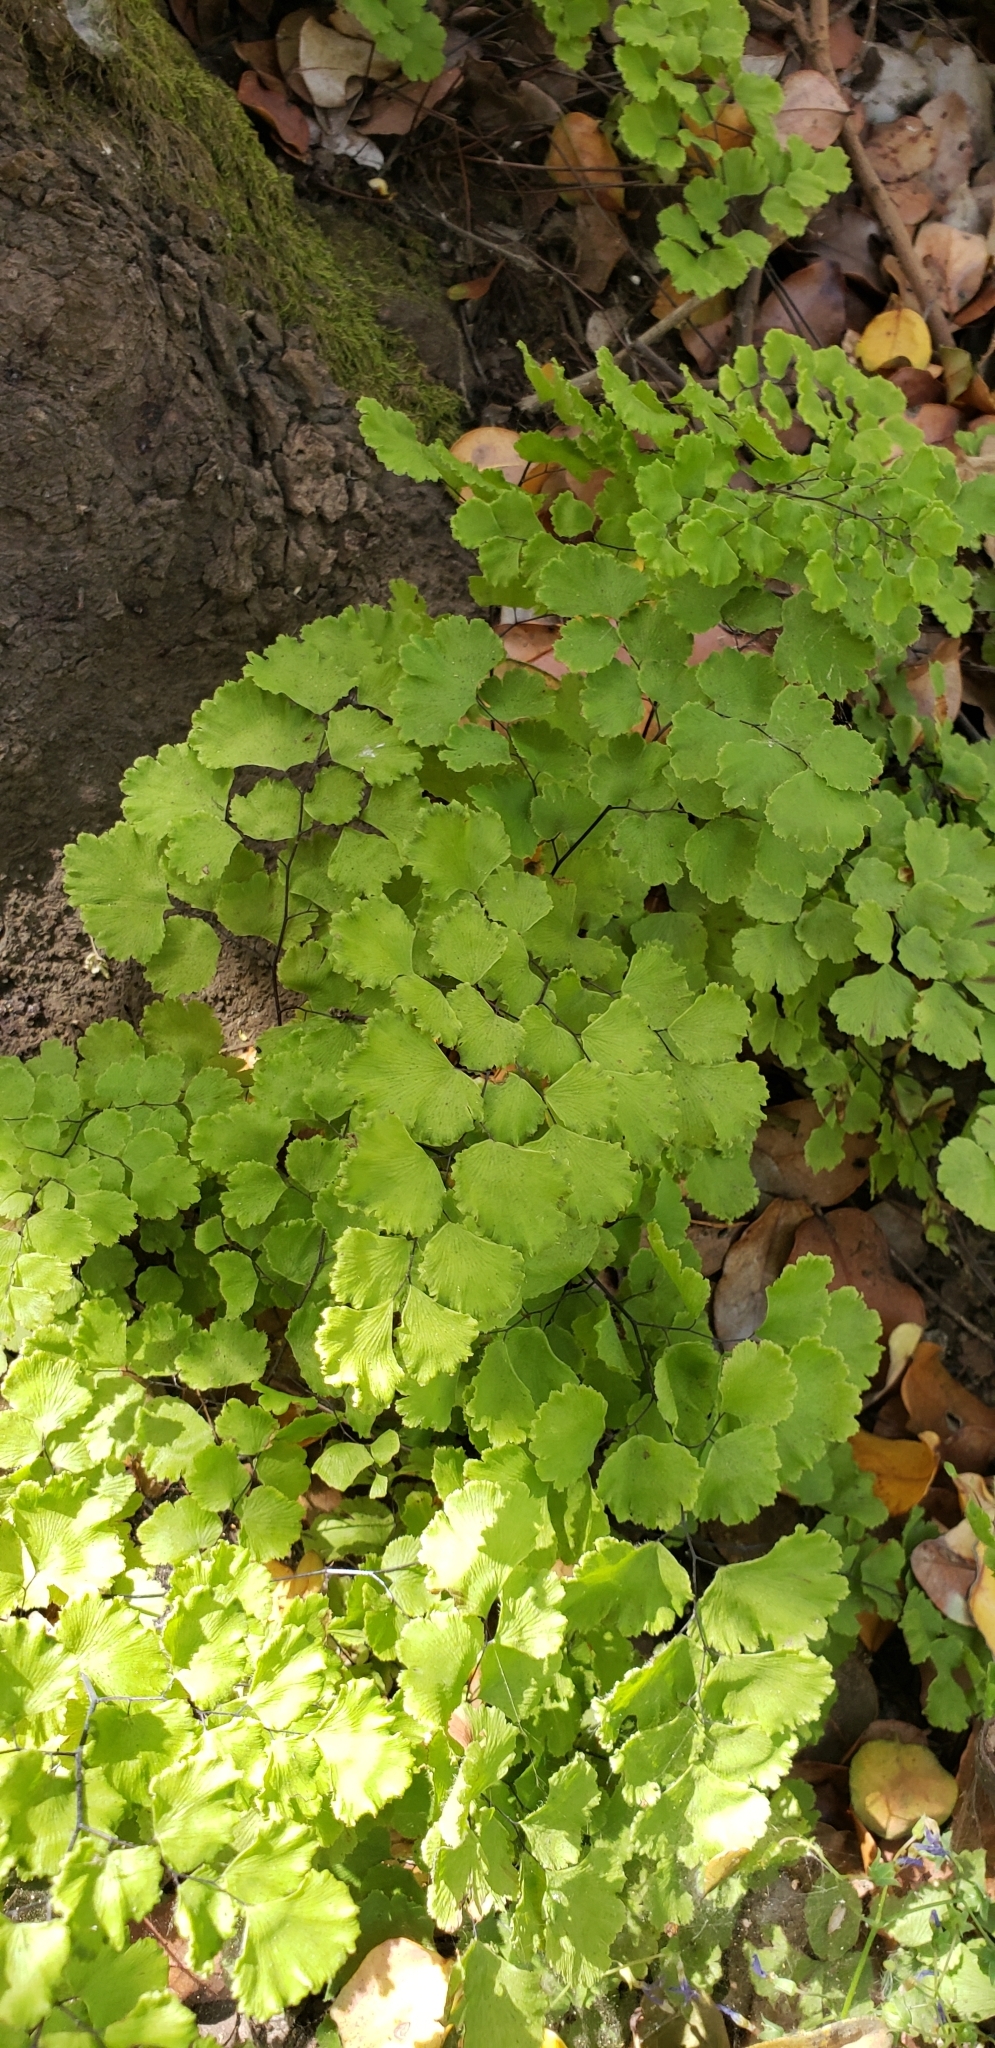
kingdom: Plantae
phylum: Tracheophyta
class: Polypodiopsida
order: Polypodiales
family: Pteridaceae
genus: Adiantum
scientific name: Adiantum chilense
